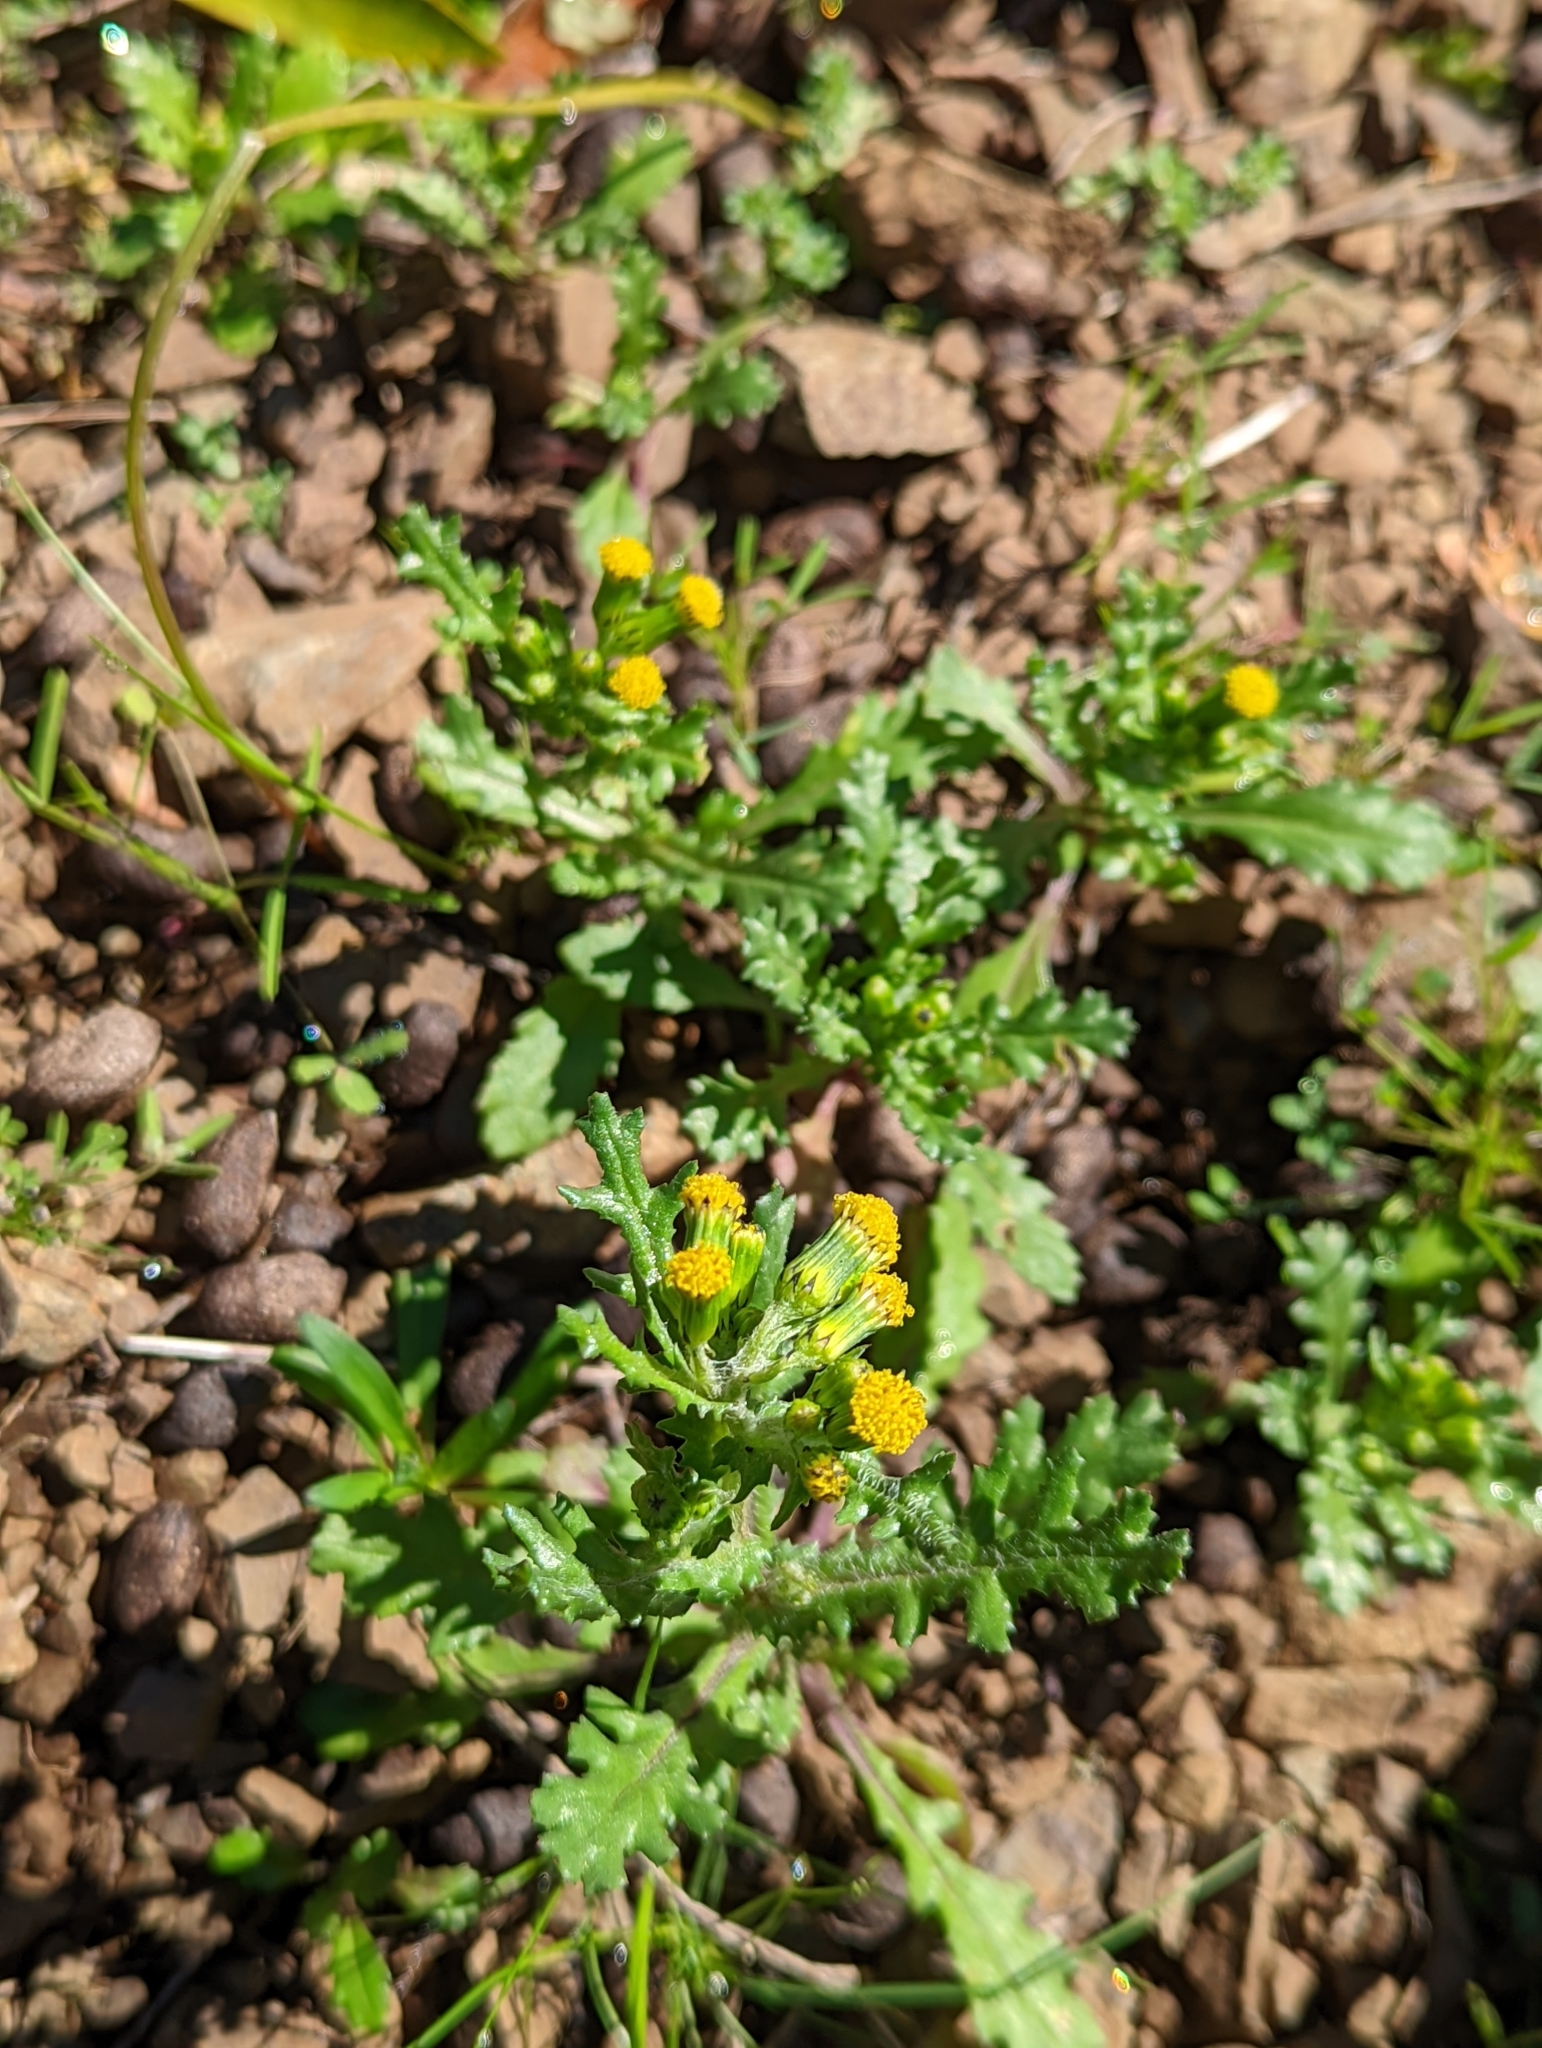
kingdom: Plantae
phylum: Tracheophyta
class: Magnoliopsida
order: Asterales
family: Asteraceae
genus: Senecio
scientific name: Senecio vulgaris
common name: Old-man-in-the-spring
